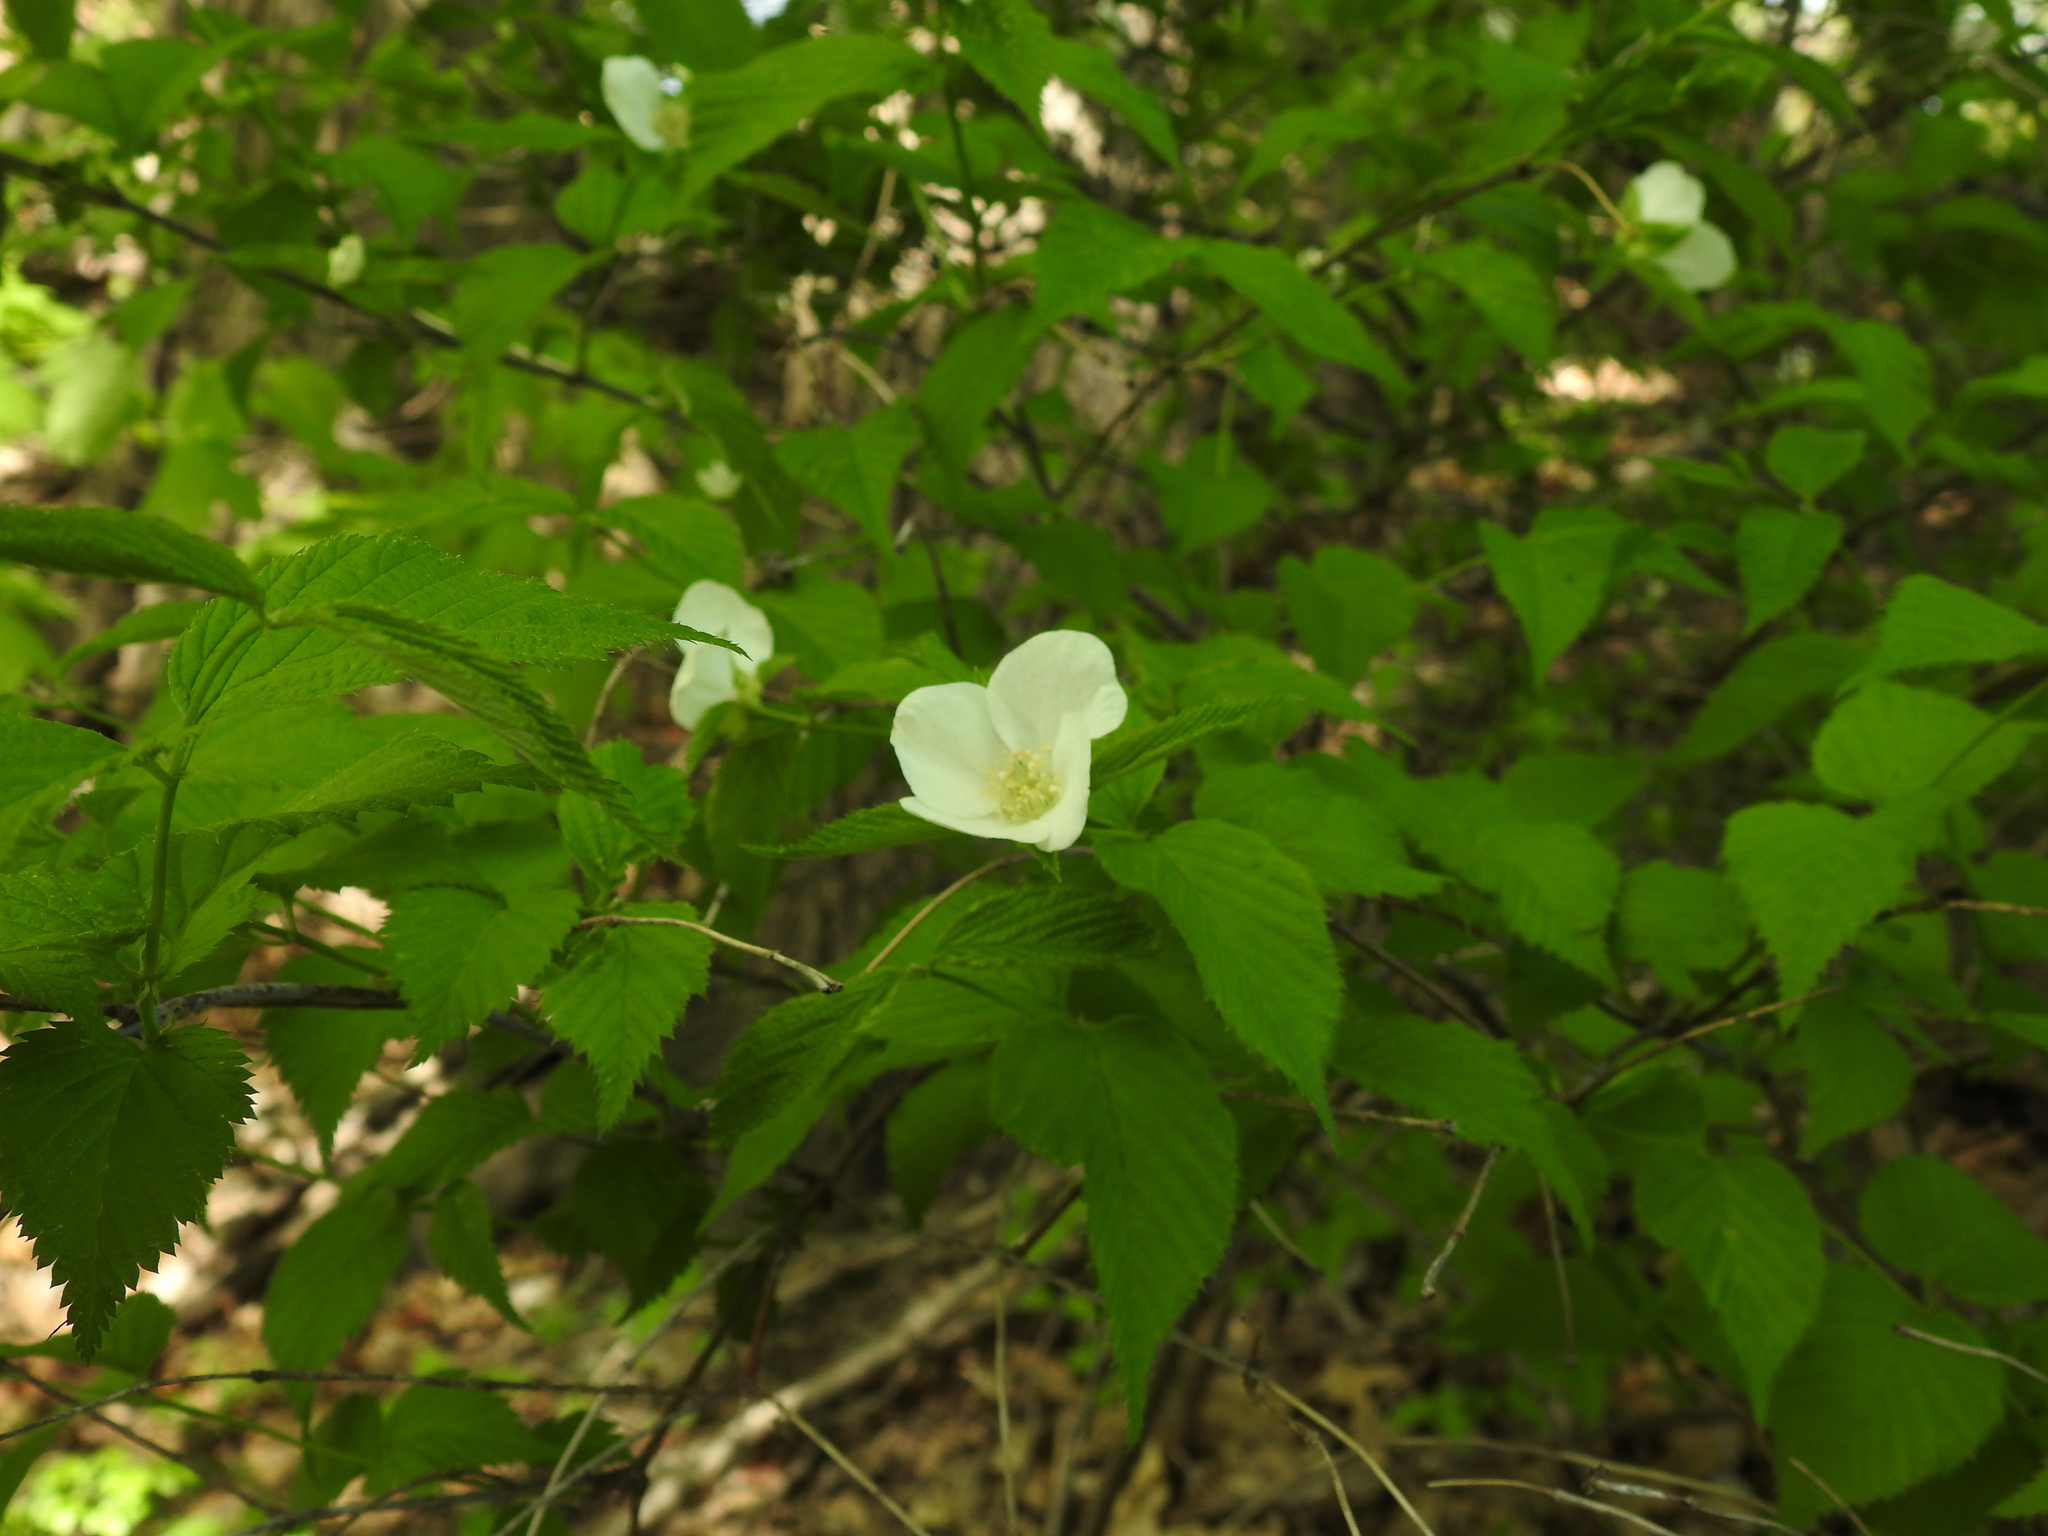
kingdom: Plantae
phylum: Tracheophyta
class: Magnoliopsida
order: Rosales
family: Rosaceae
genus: Rhodotypos
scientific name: Rhodotypos scandens
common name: Jetbead
